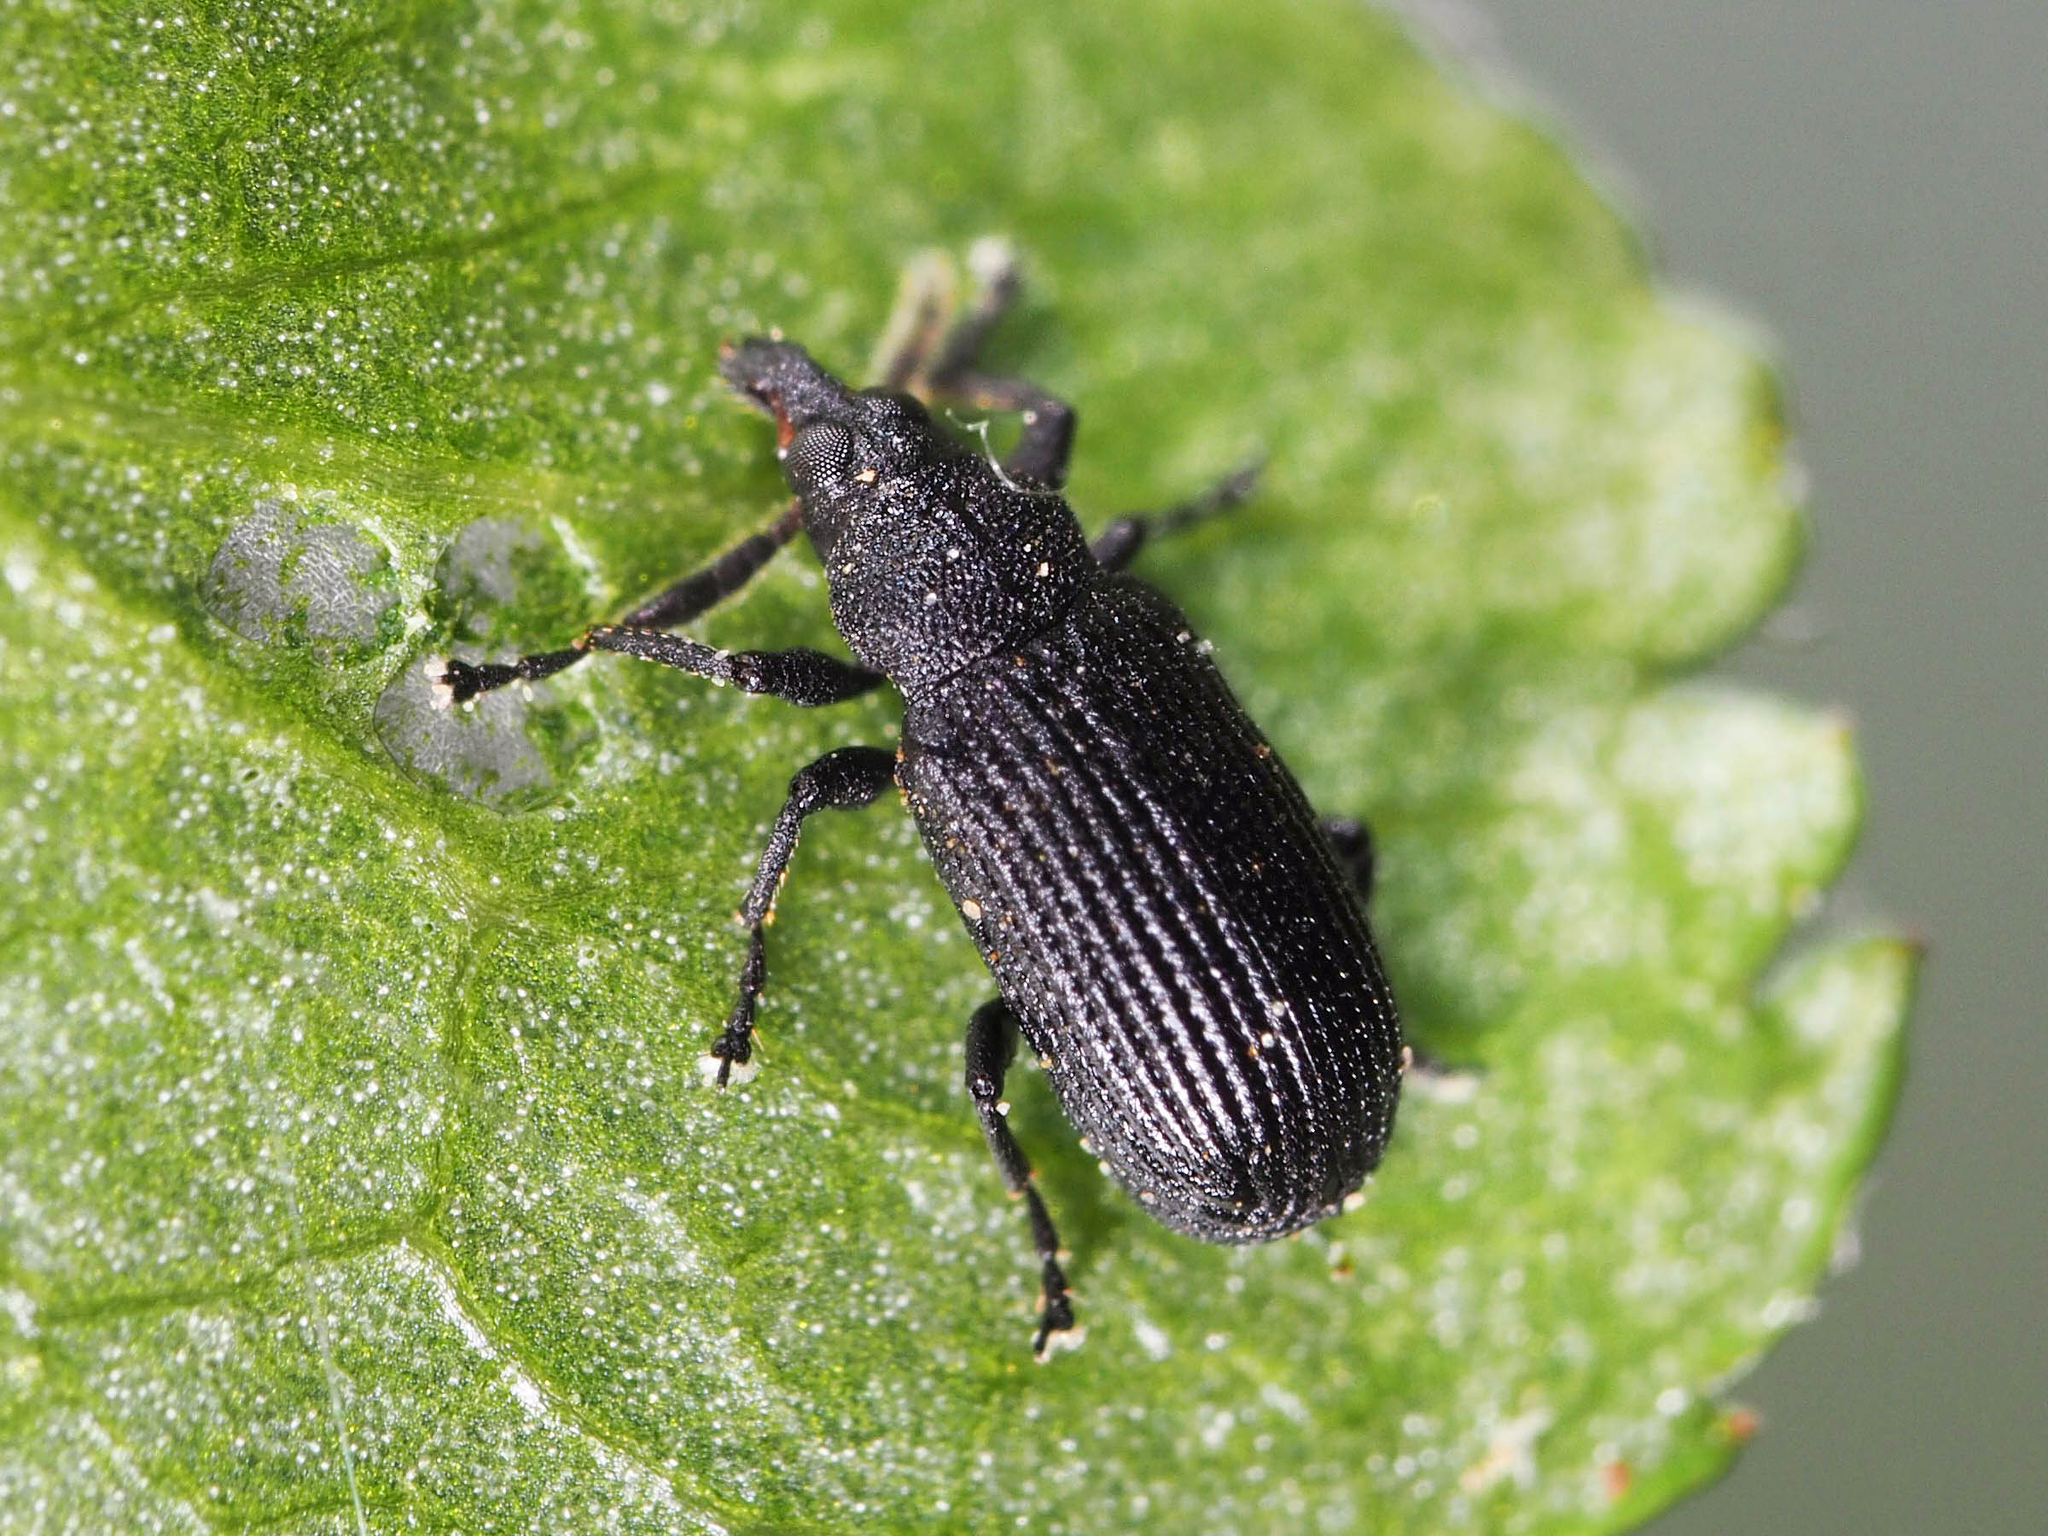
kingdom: Animalia
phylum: Arthropoda
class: Insecta
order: Coleoptera
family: Curculionidae
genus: Magdalis
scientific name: Magdalis ruficornis
